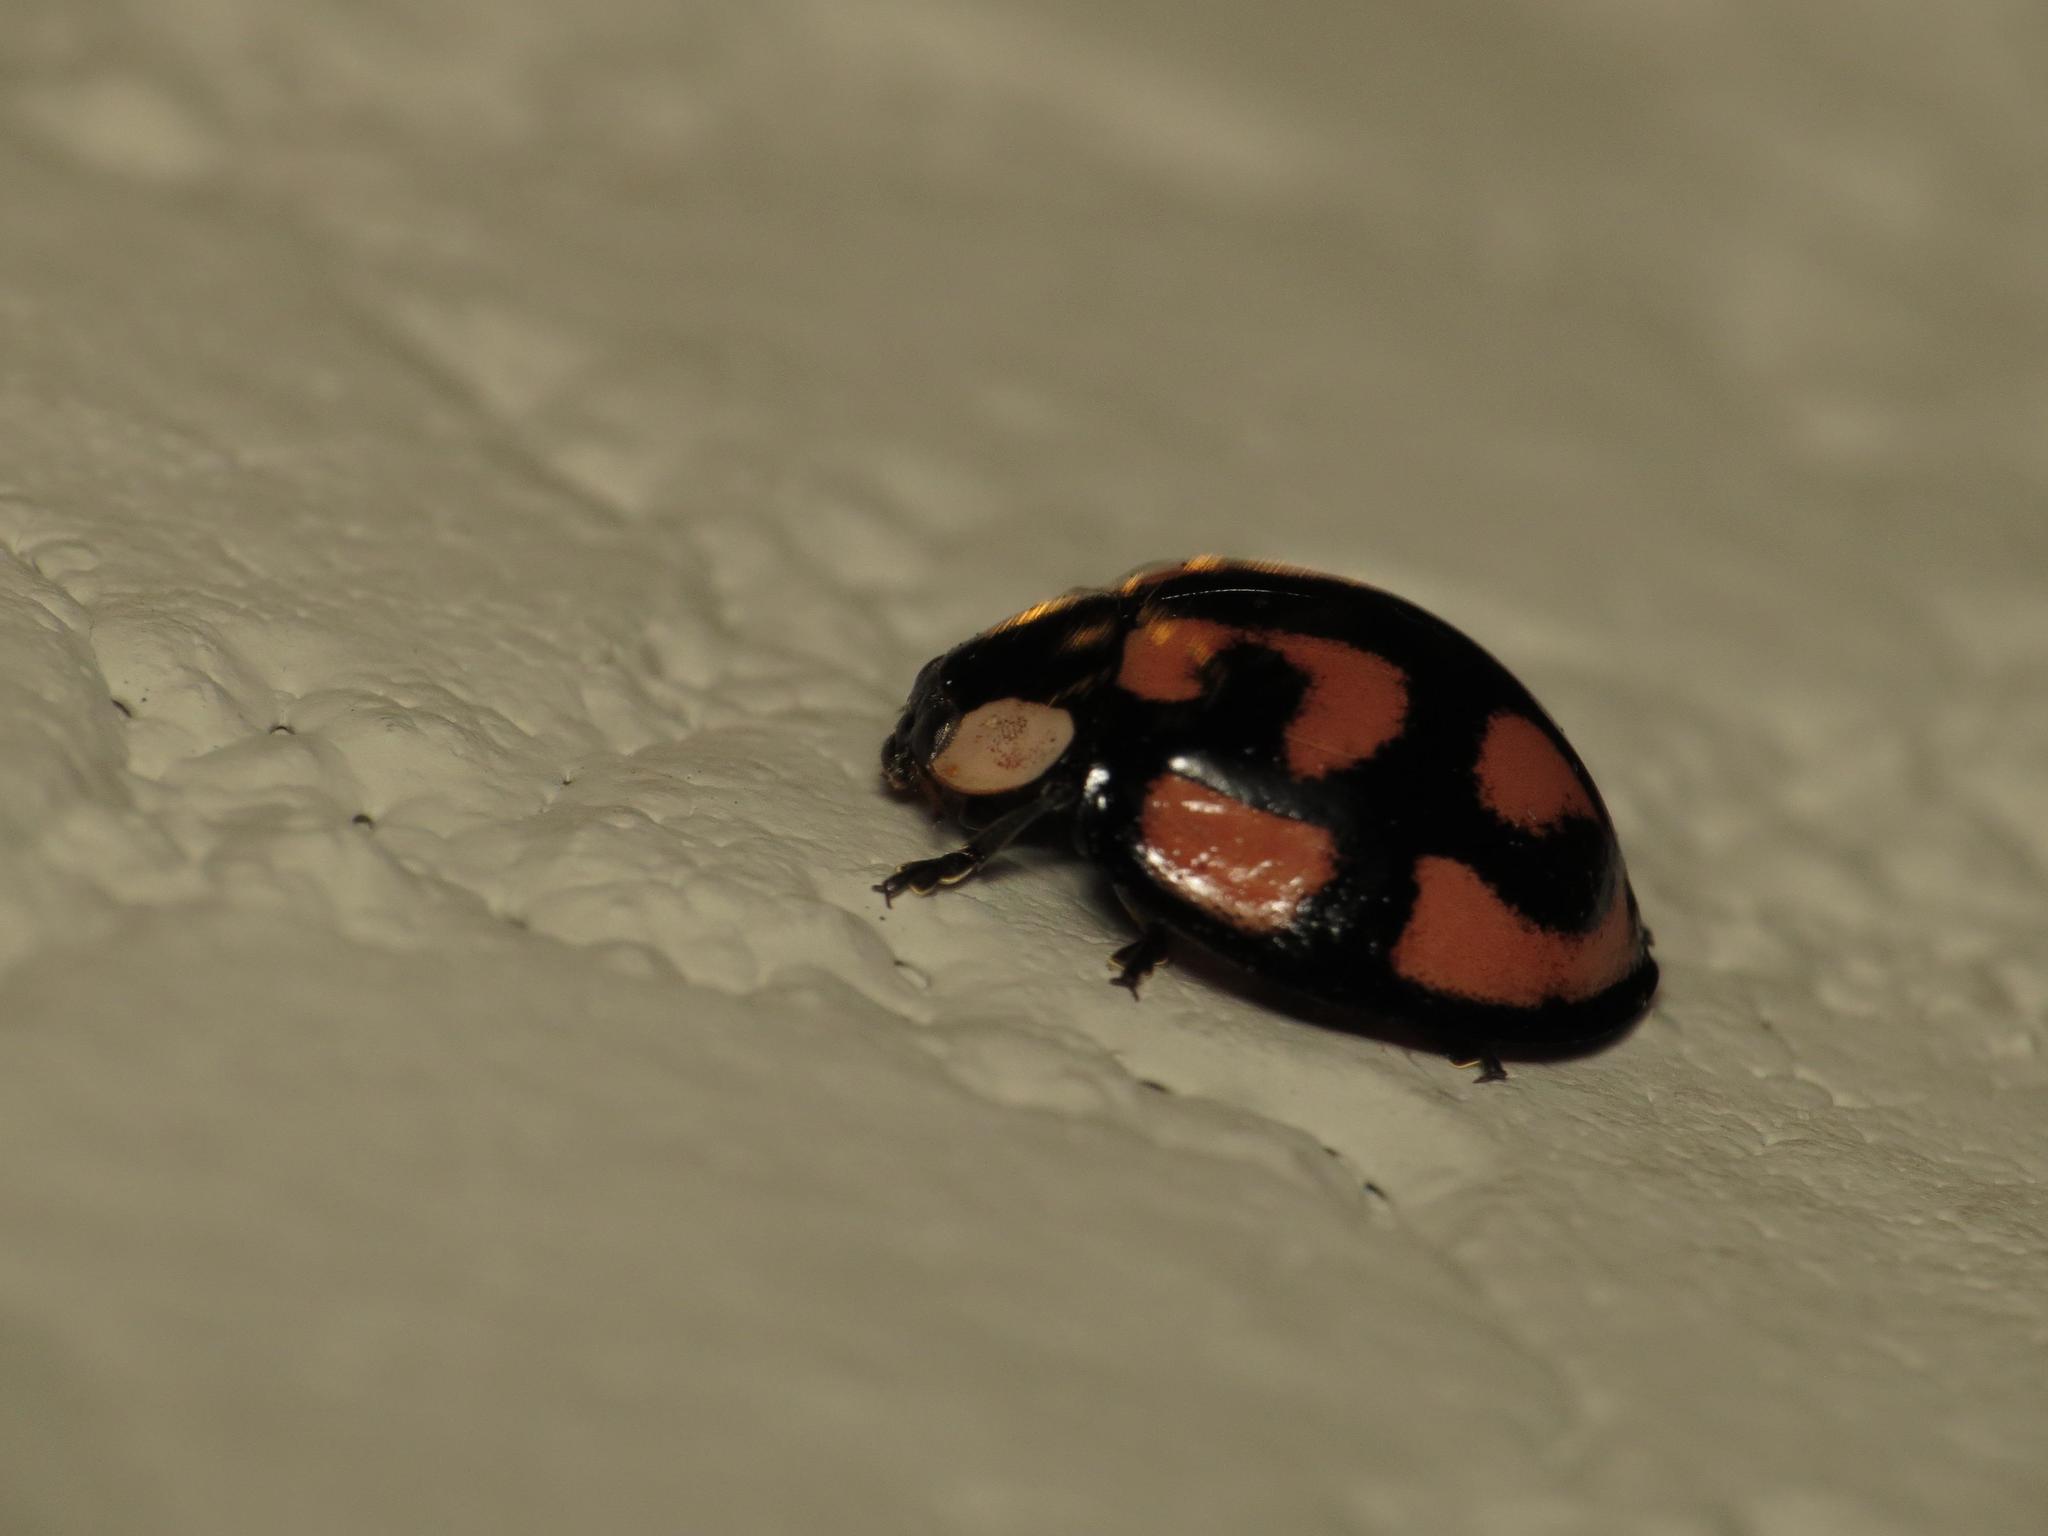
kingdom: Animalia
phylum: Arthropoda
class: Insecta
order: Coleoptera
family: Coccinellidae
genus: Aiolocaria
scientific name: Aiolocaria hexaspilota
